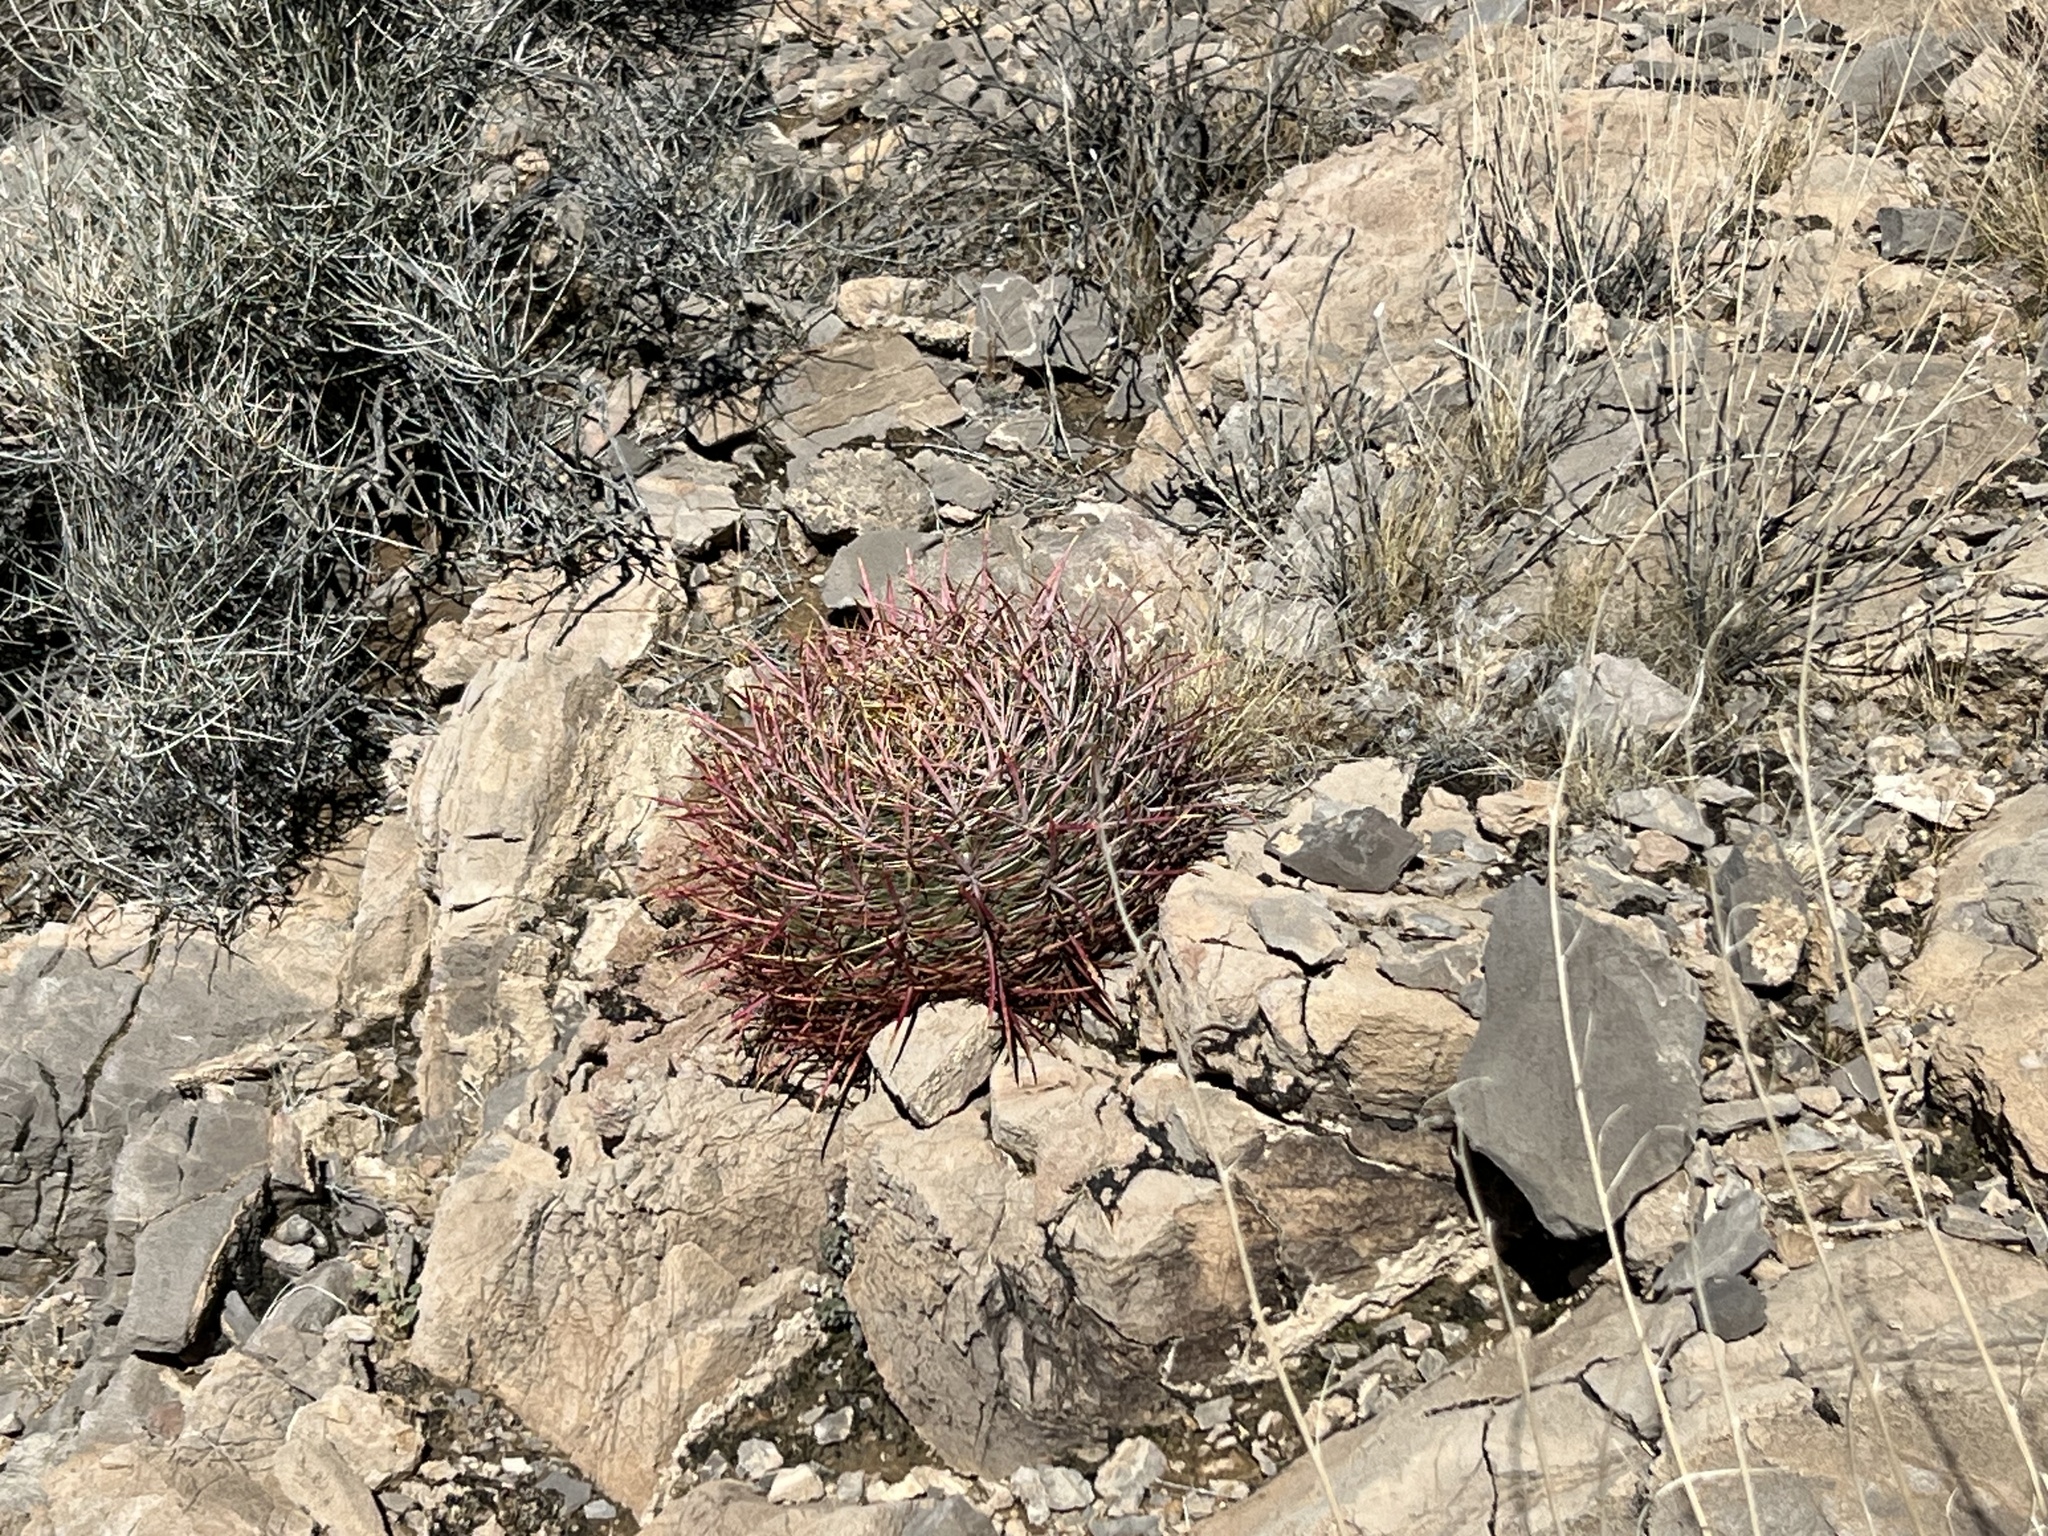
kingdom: Plantae
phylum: Tracheophyta
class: Magnoliopsida
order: Caryophyllales
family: Cactaceae
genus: Ferocactus
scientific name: Ferocactus cylindraceus
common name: California barrel cactus
